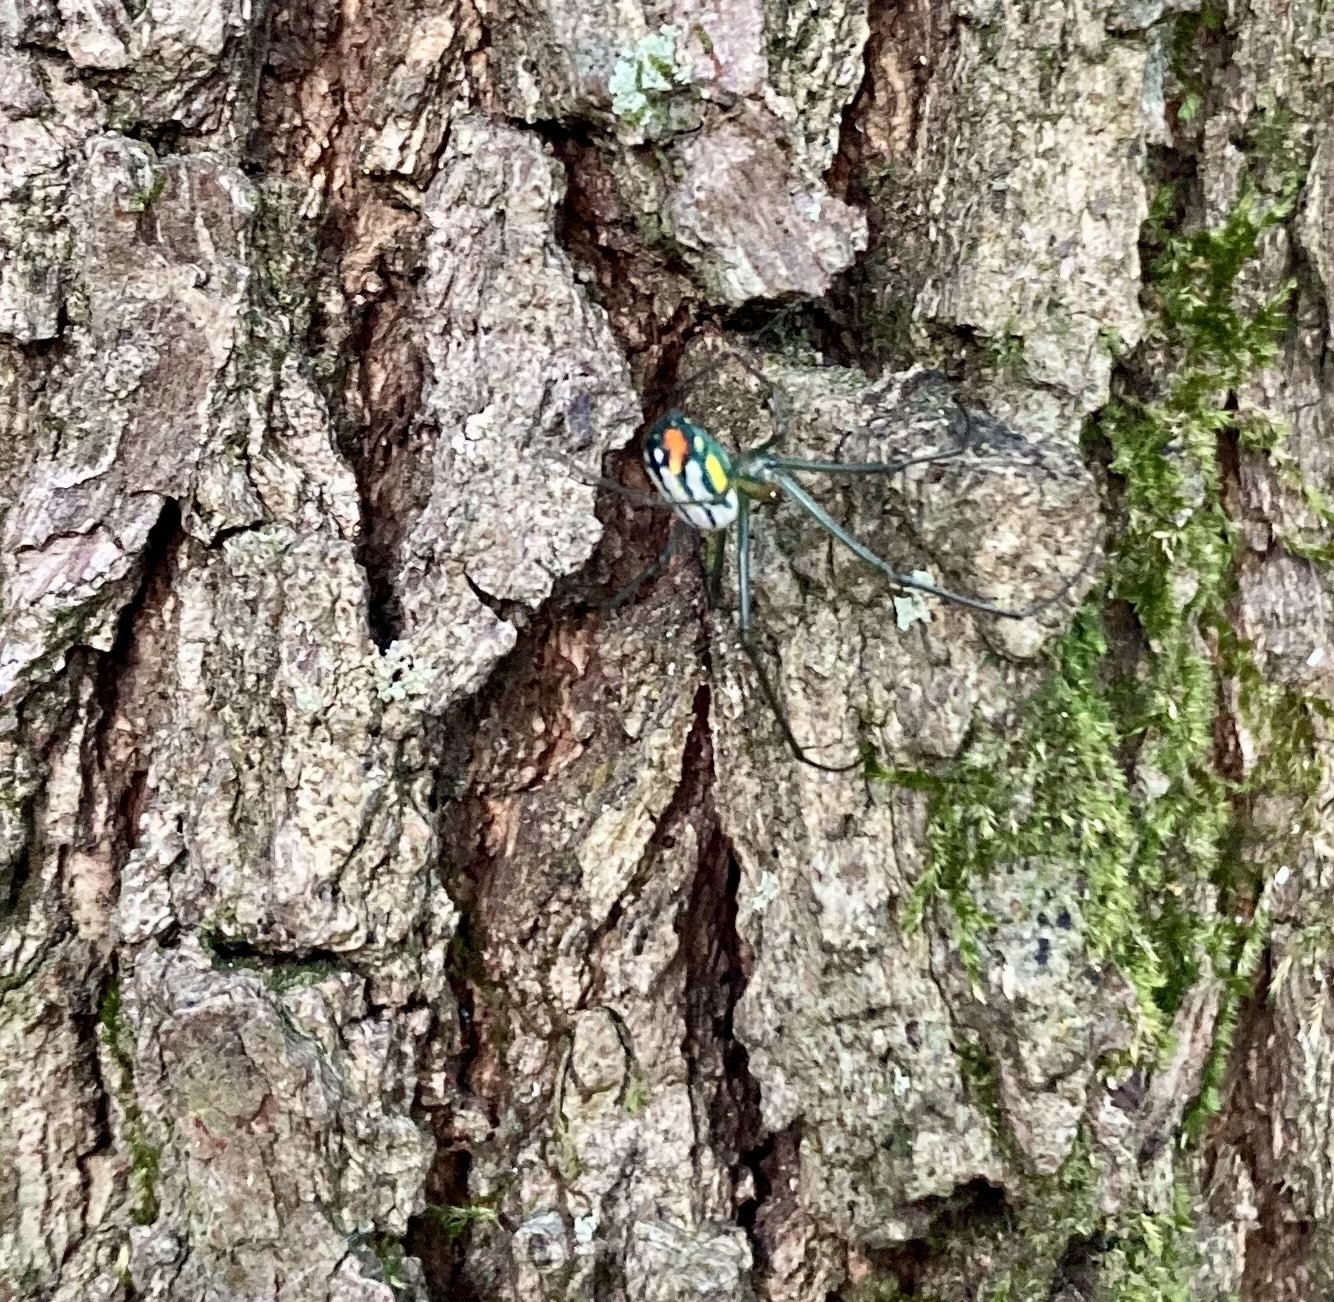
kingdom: Animalia
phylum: Arthropoda
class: Arachnida
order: Araneae
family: Tetragnathidae
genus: Leucauge
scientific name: Leucauge argyrobapta
